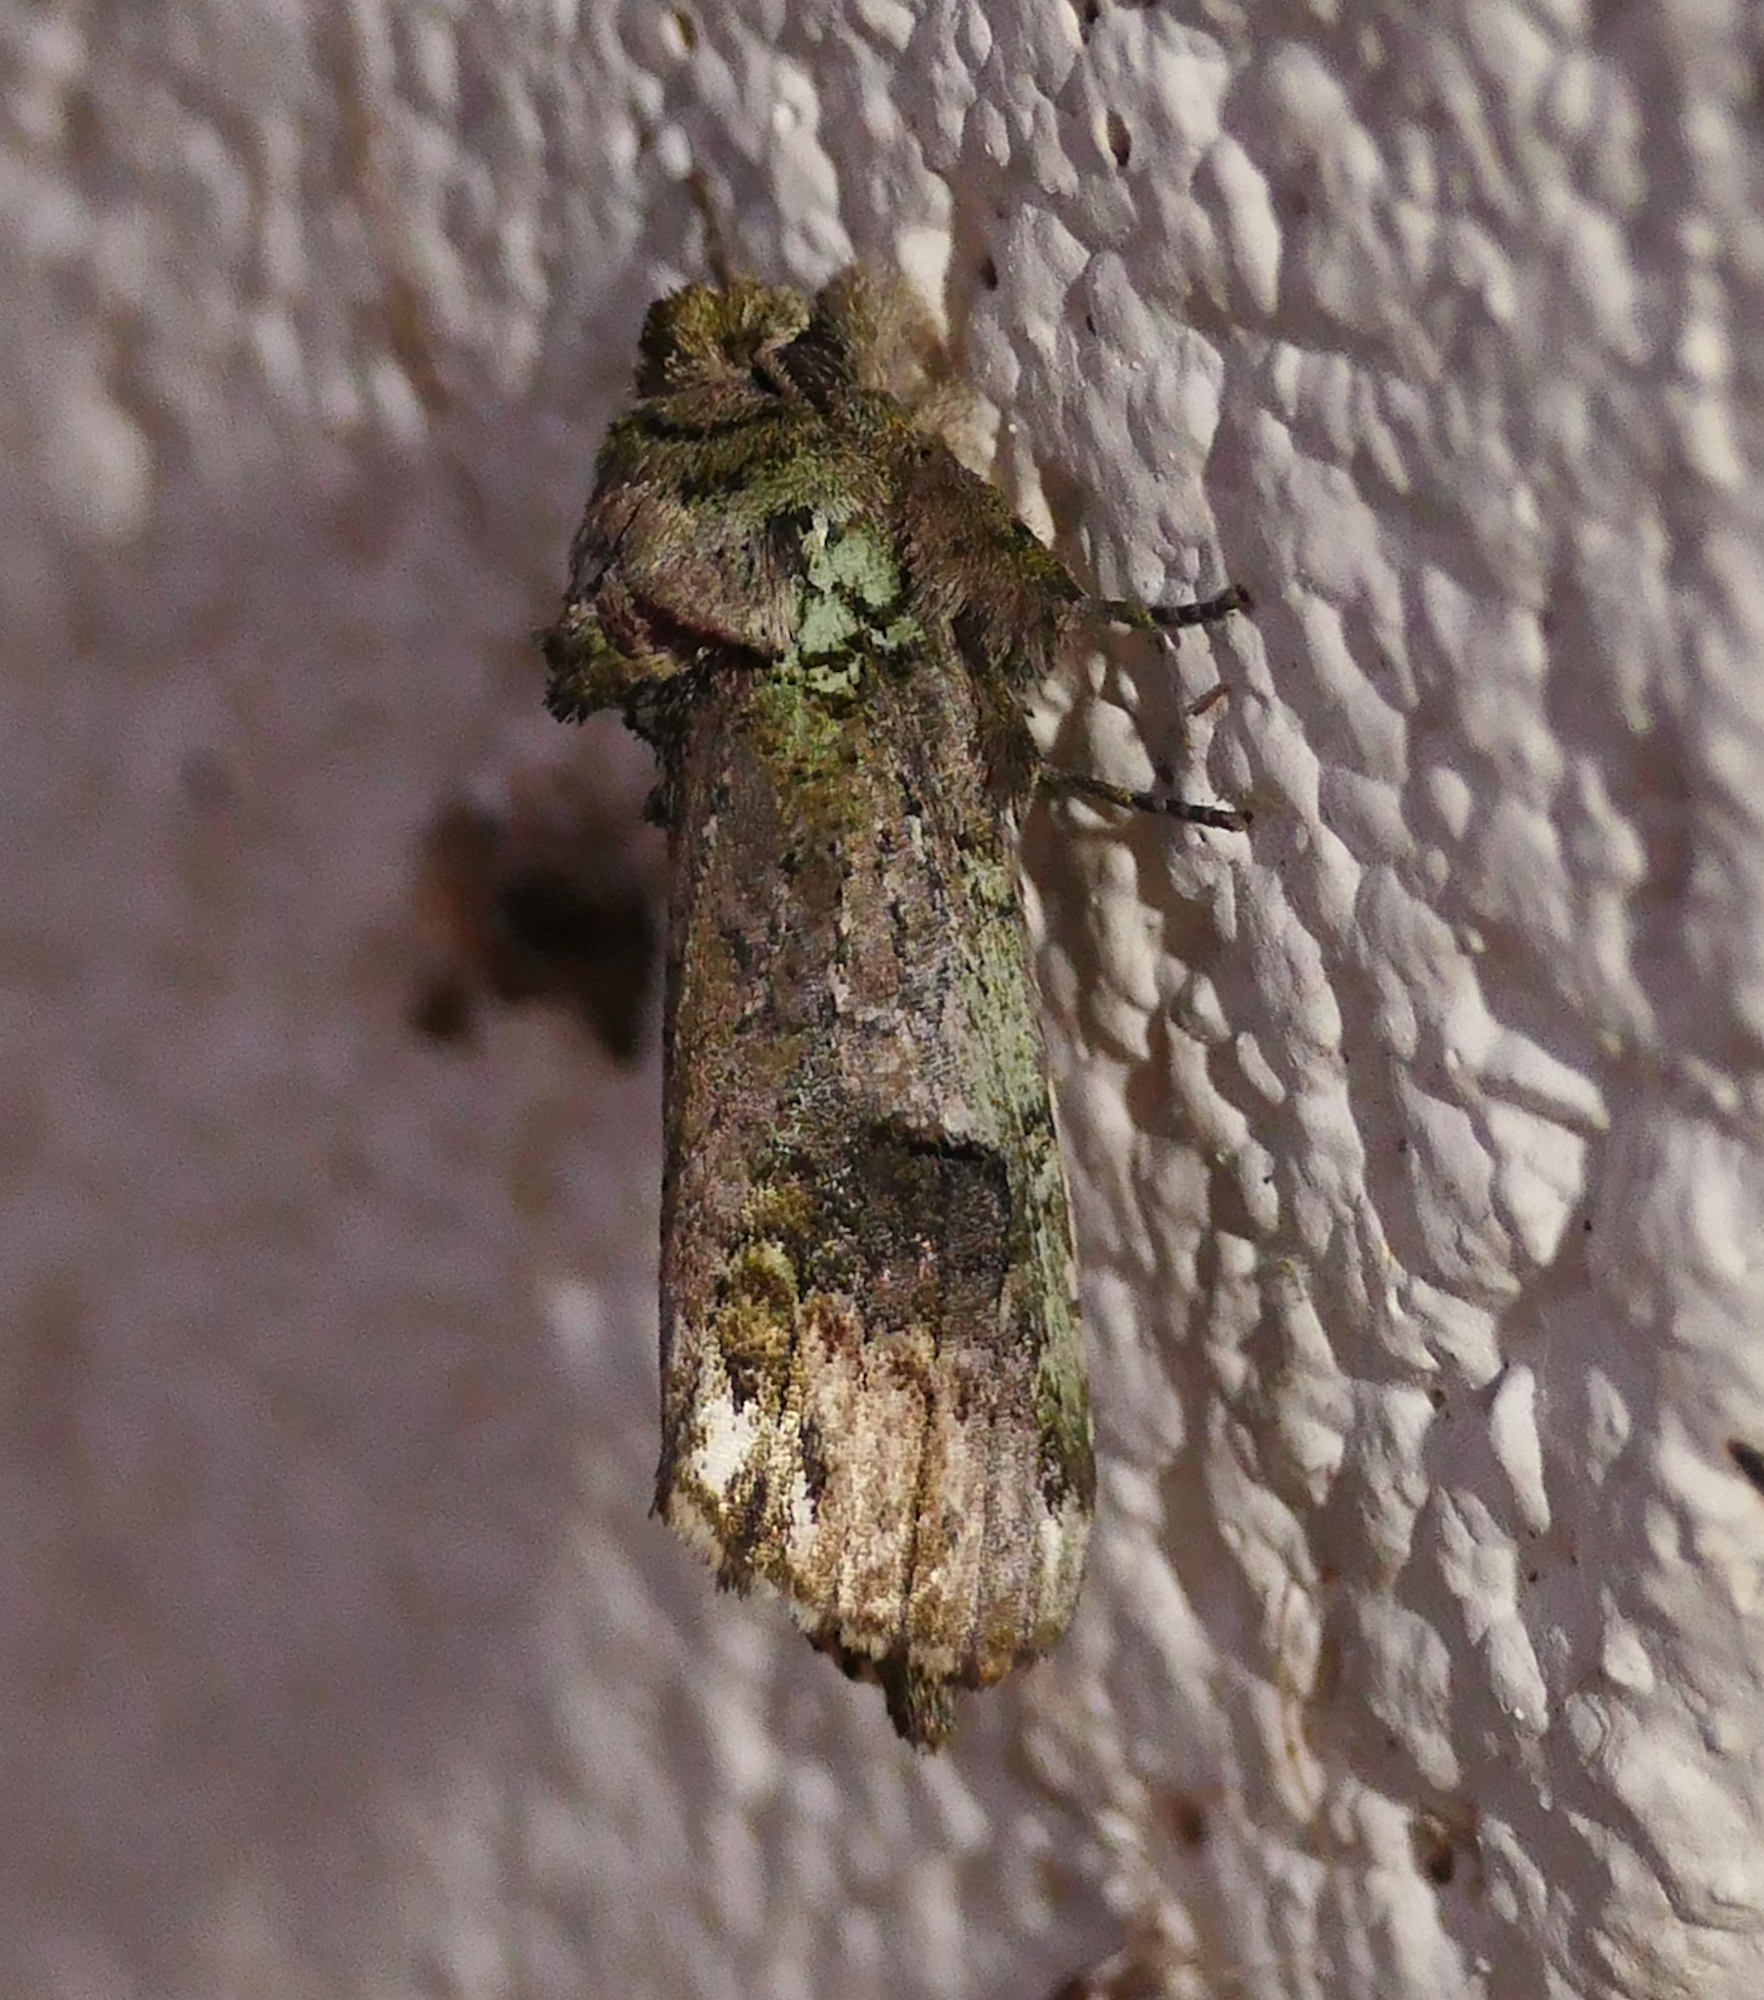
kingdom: Animalia
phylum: Arthropoda
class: Insecta
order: Lepidoptera
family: Notodontidae
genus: Schizura
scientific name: Schizura
